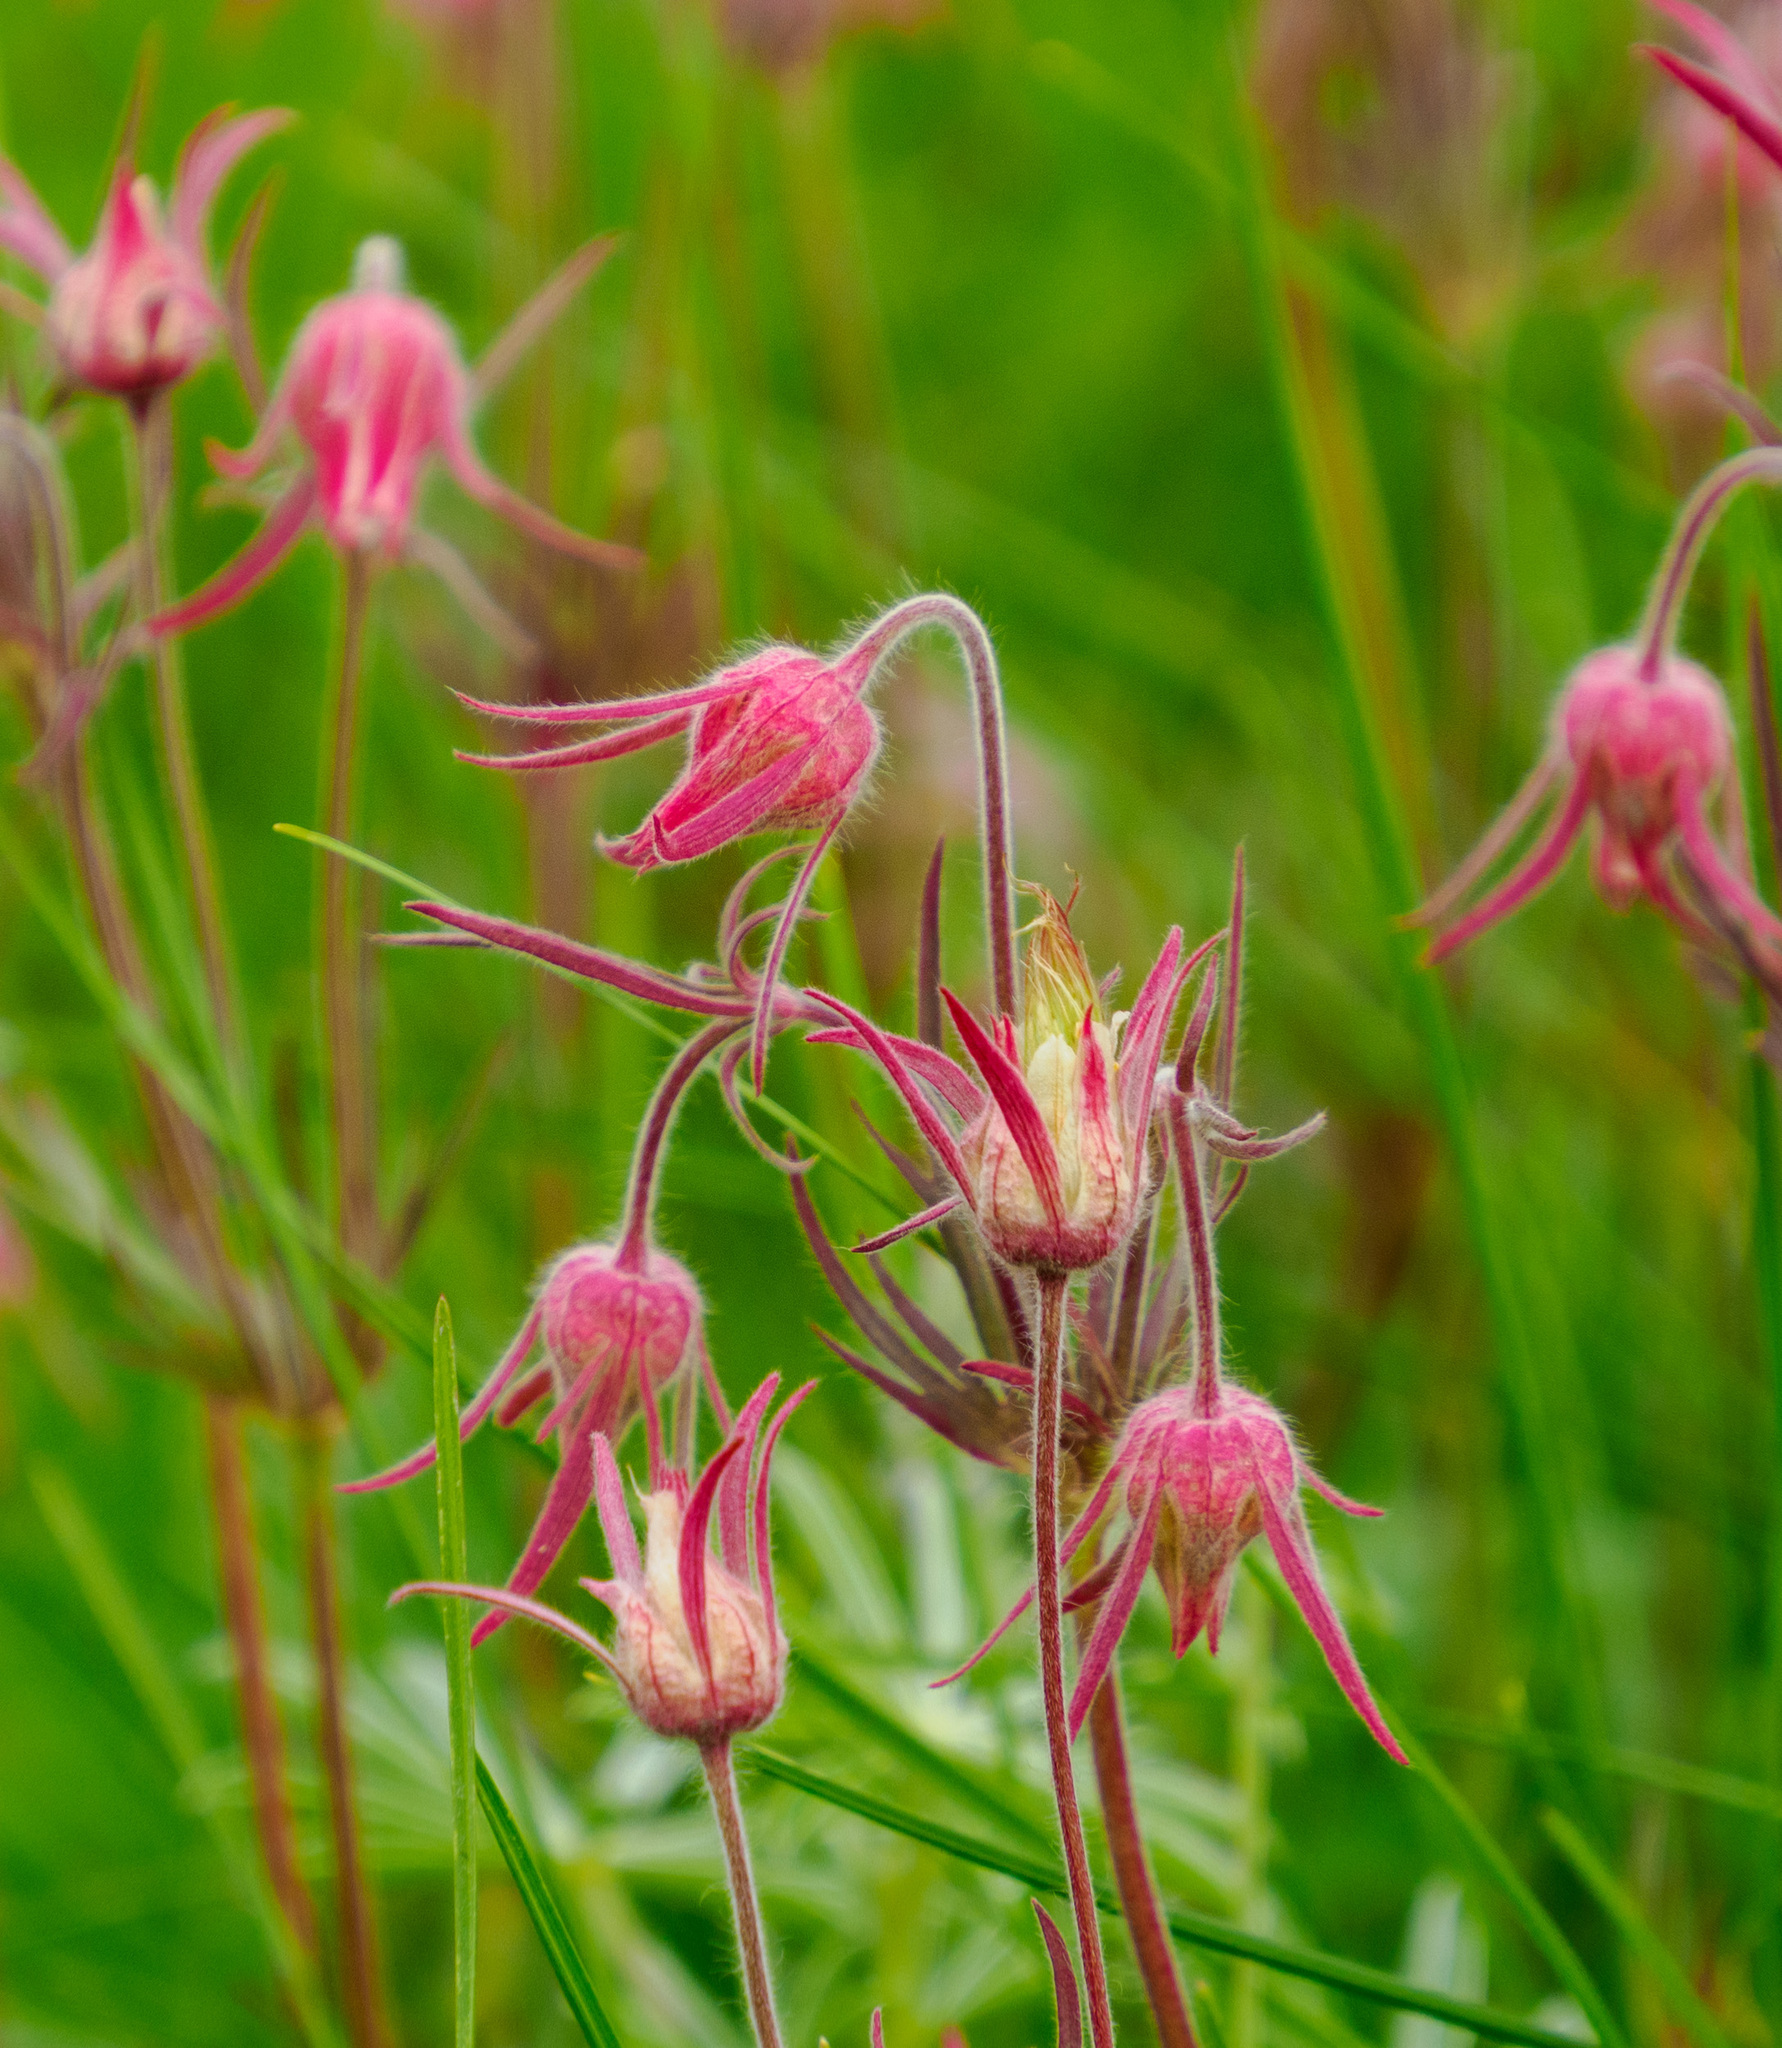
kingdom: Plantae
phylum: Tracheophyta
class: Magnoliopsida
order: Rosales
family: Rosaceae
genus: Geum
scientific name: Geum triflorum
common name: Old man's whiskers
